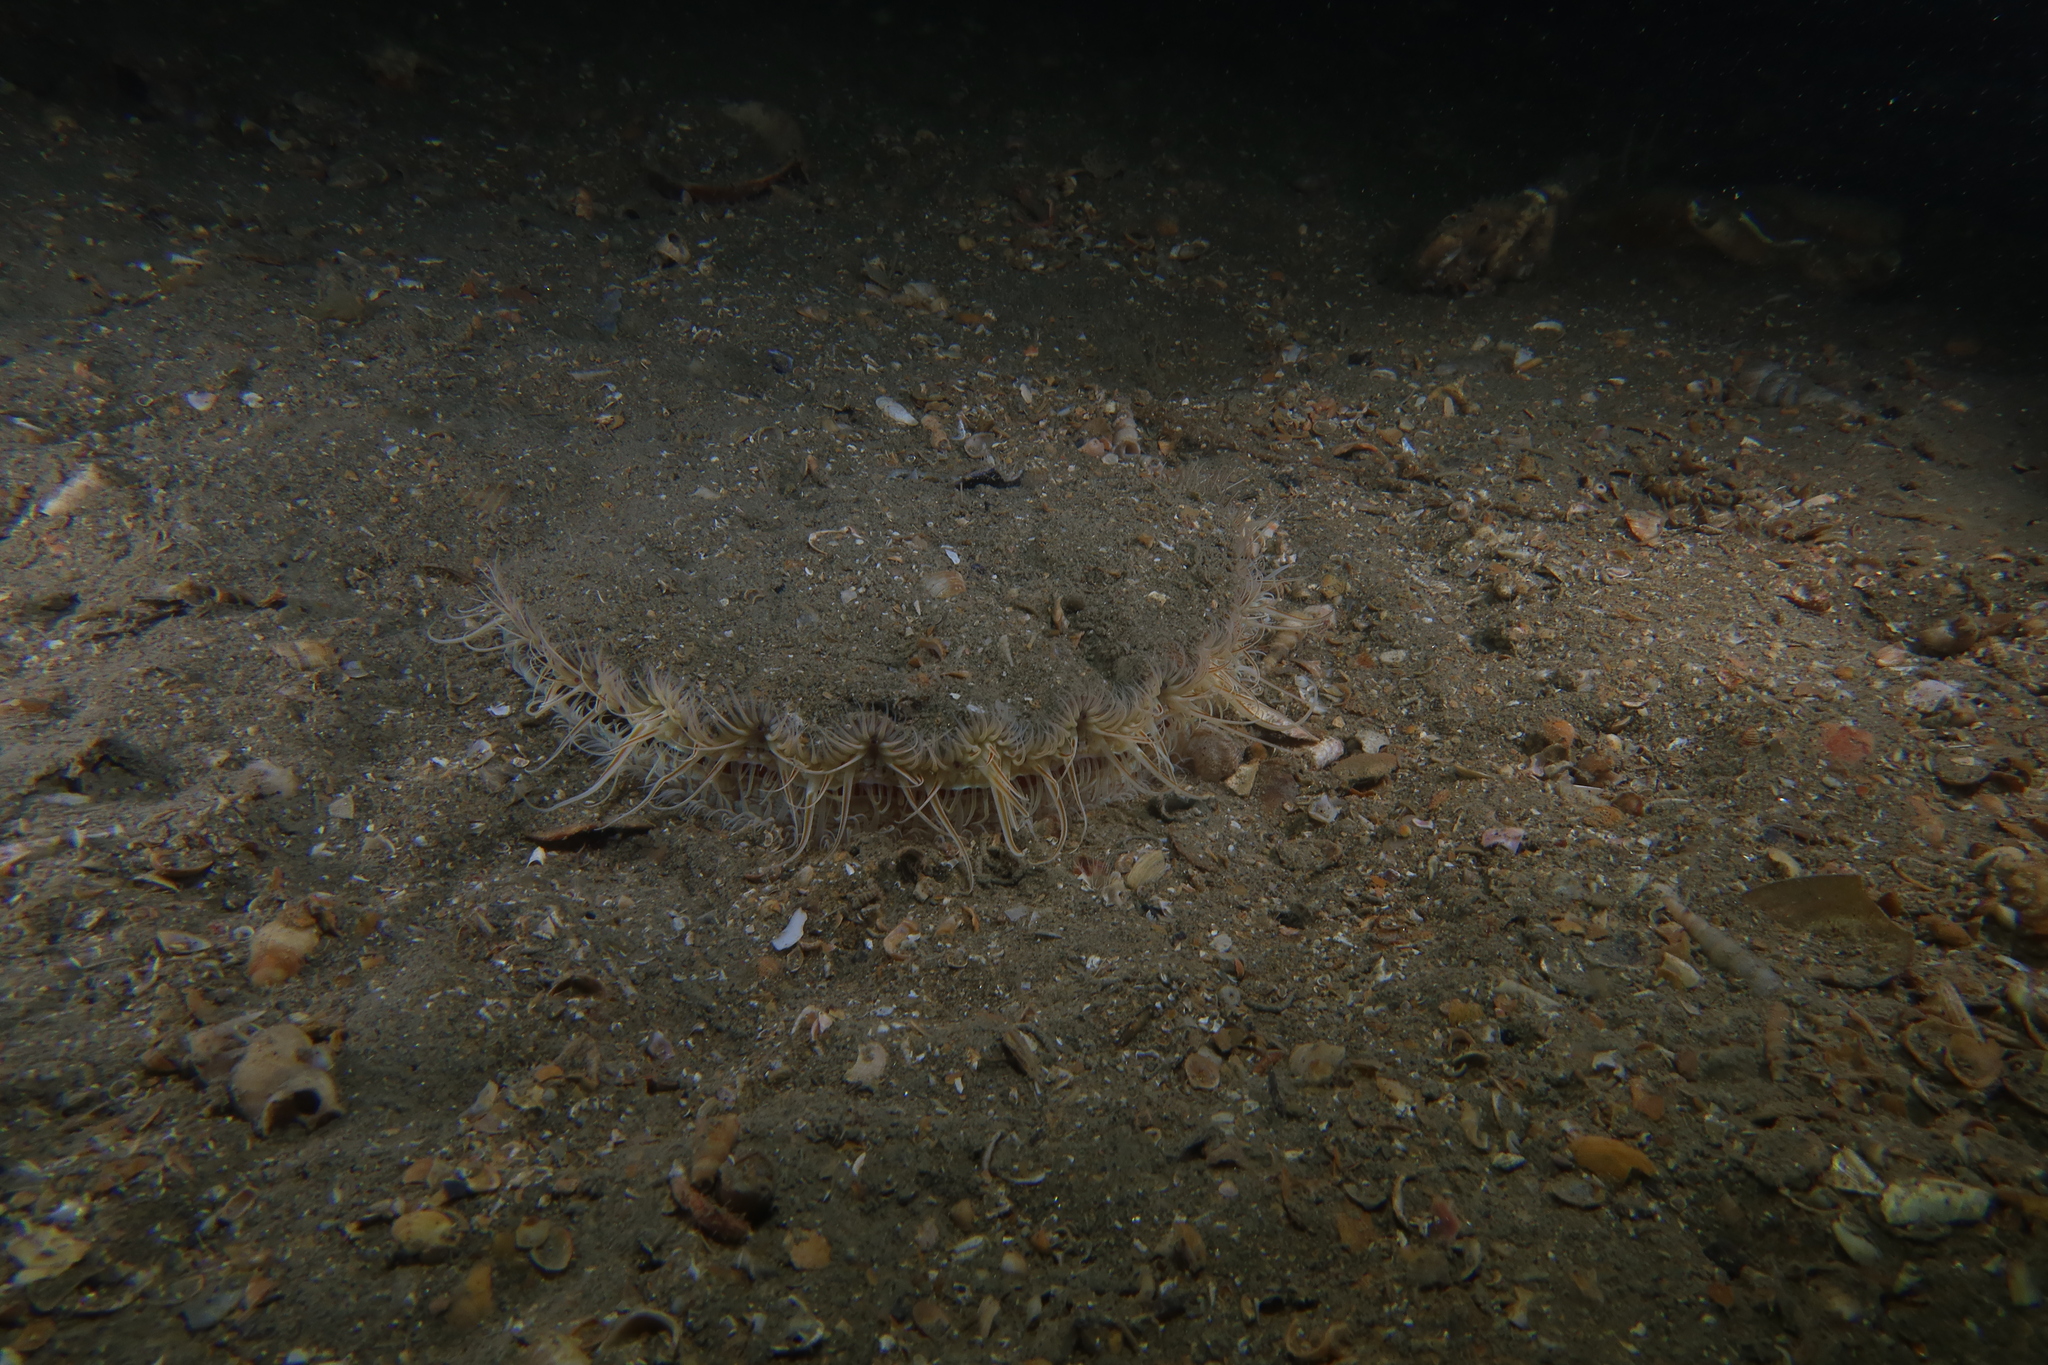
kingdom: Animalia
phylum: Mollusca
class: Bivalvia
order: Pectinida
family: Pectinidae
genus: Pecten
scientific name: Pecten jacobaeus
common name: St.james's scallop
